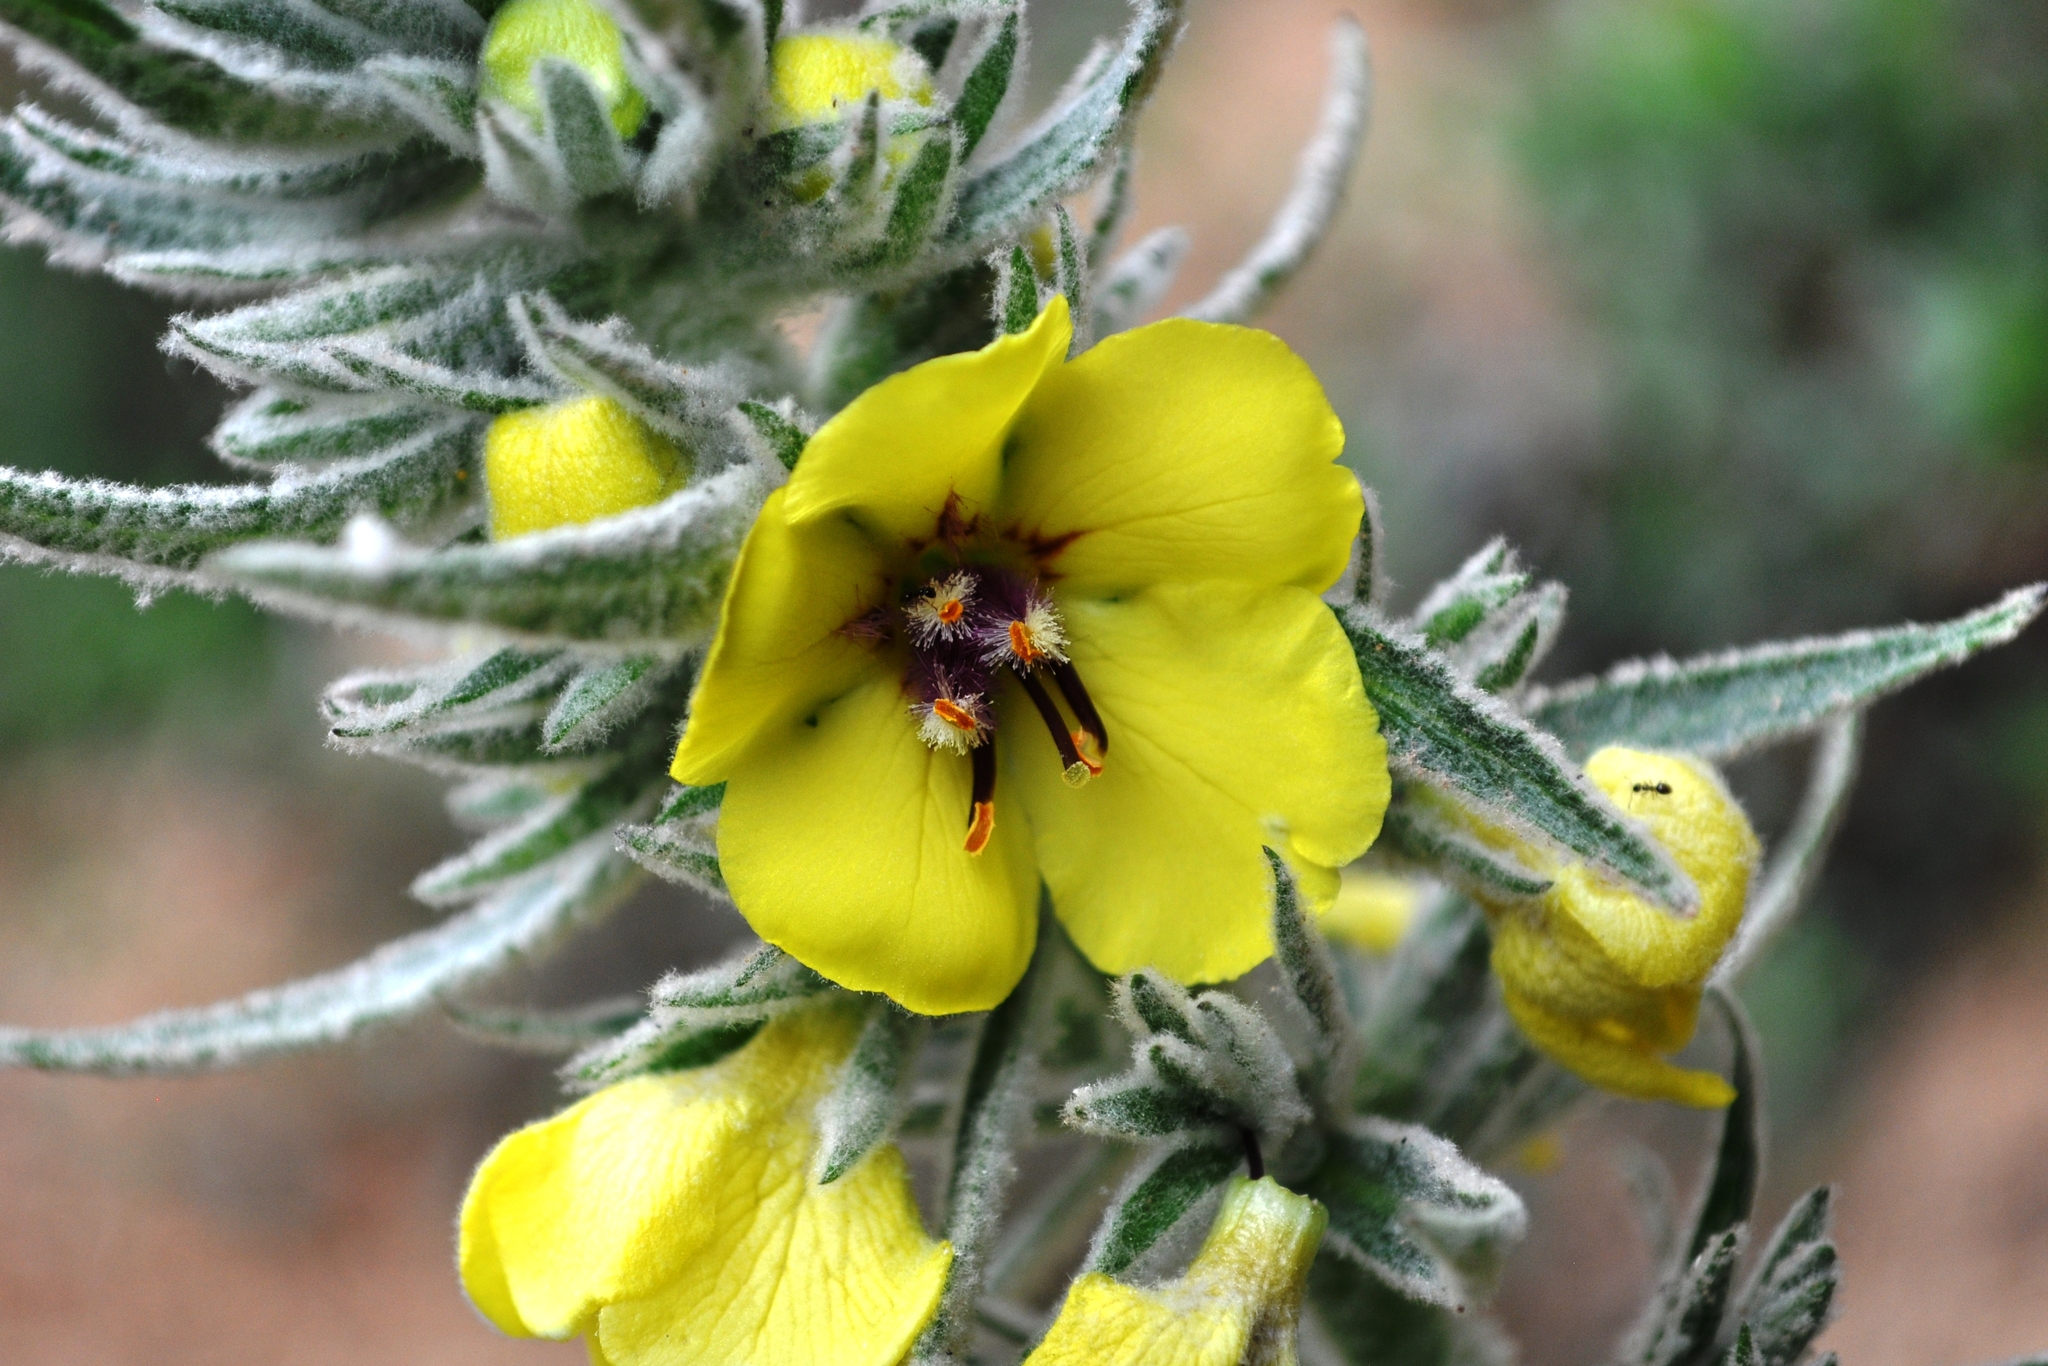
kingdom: Plantae
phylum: Tracheophyta
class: Magnoliopsida
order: Lamiales
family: Scrophulariaceae
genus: Verbascum
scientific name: Verbascum boerhavii
